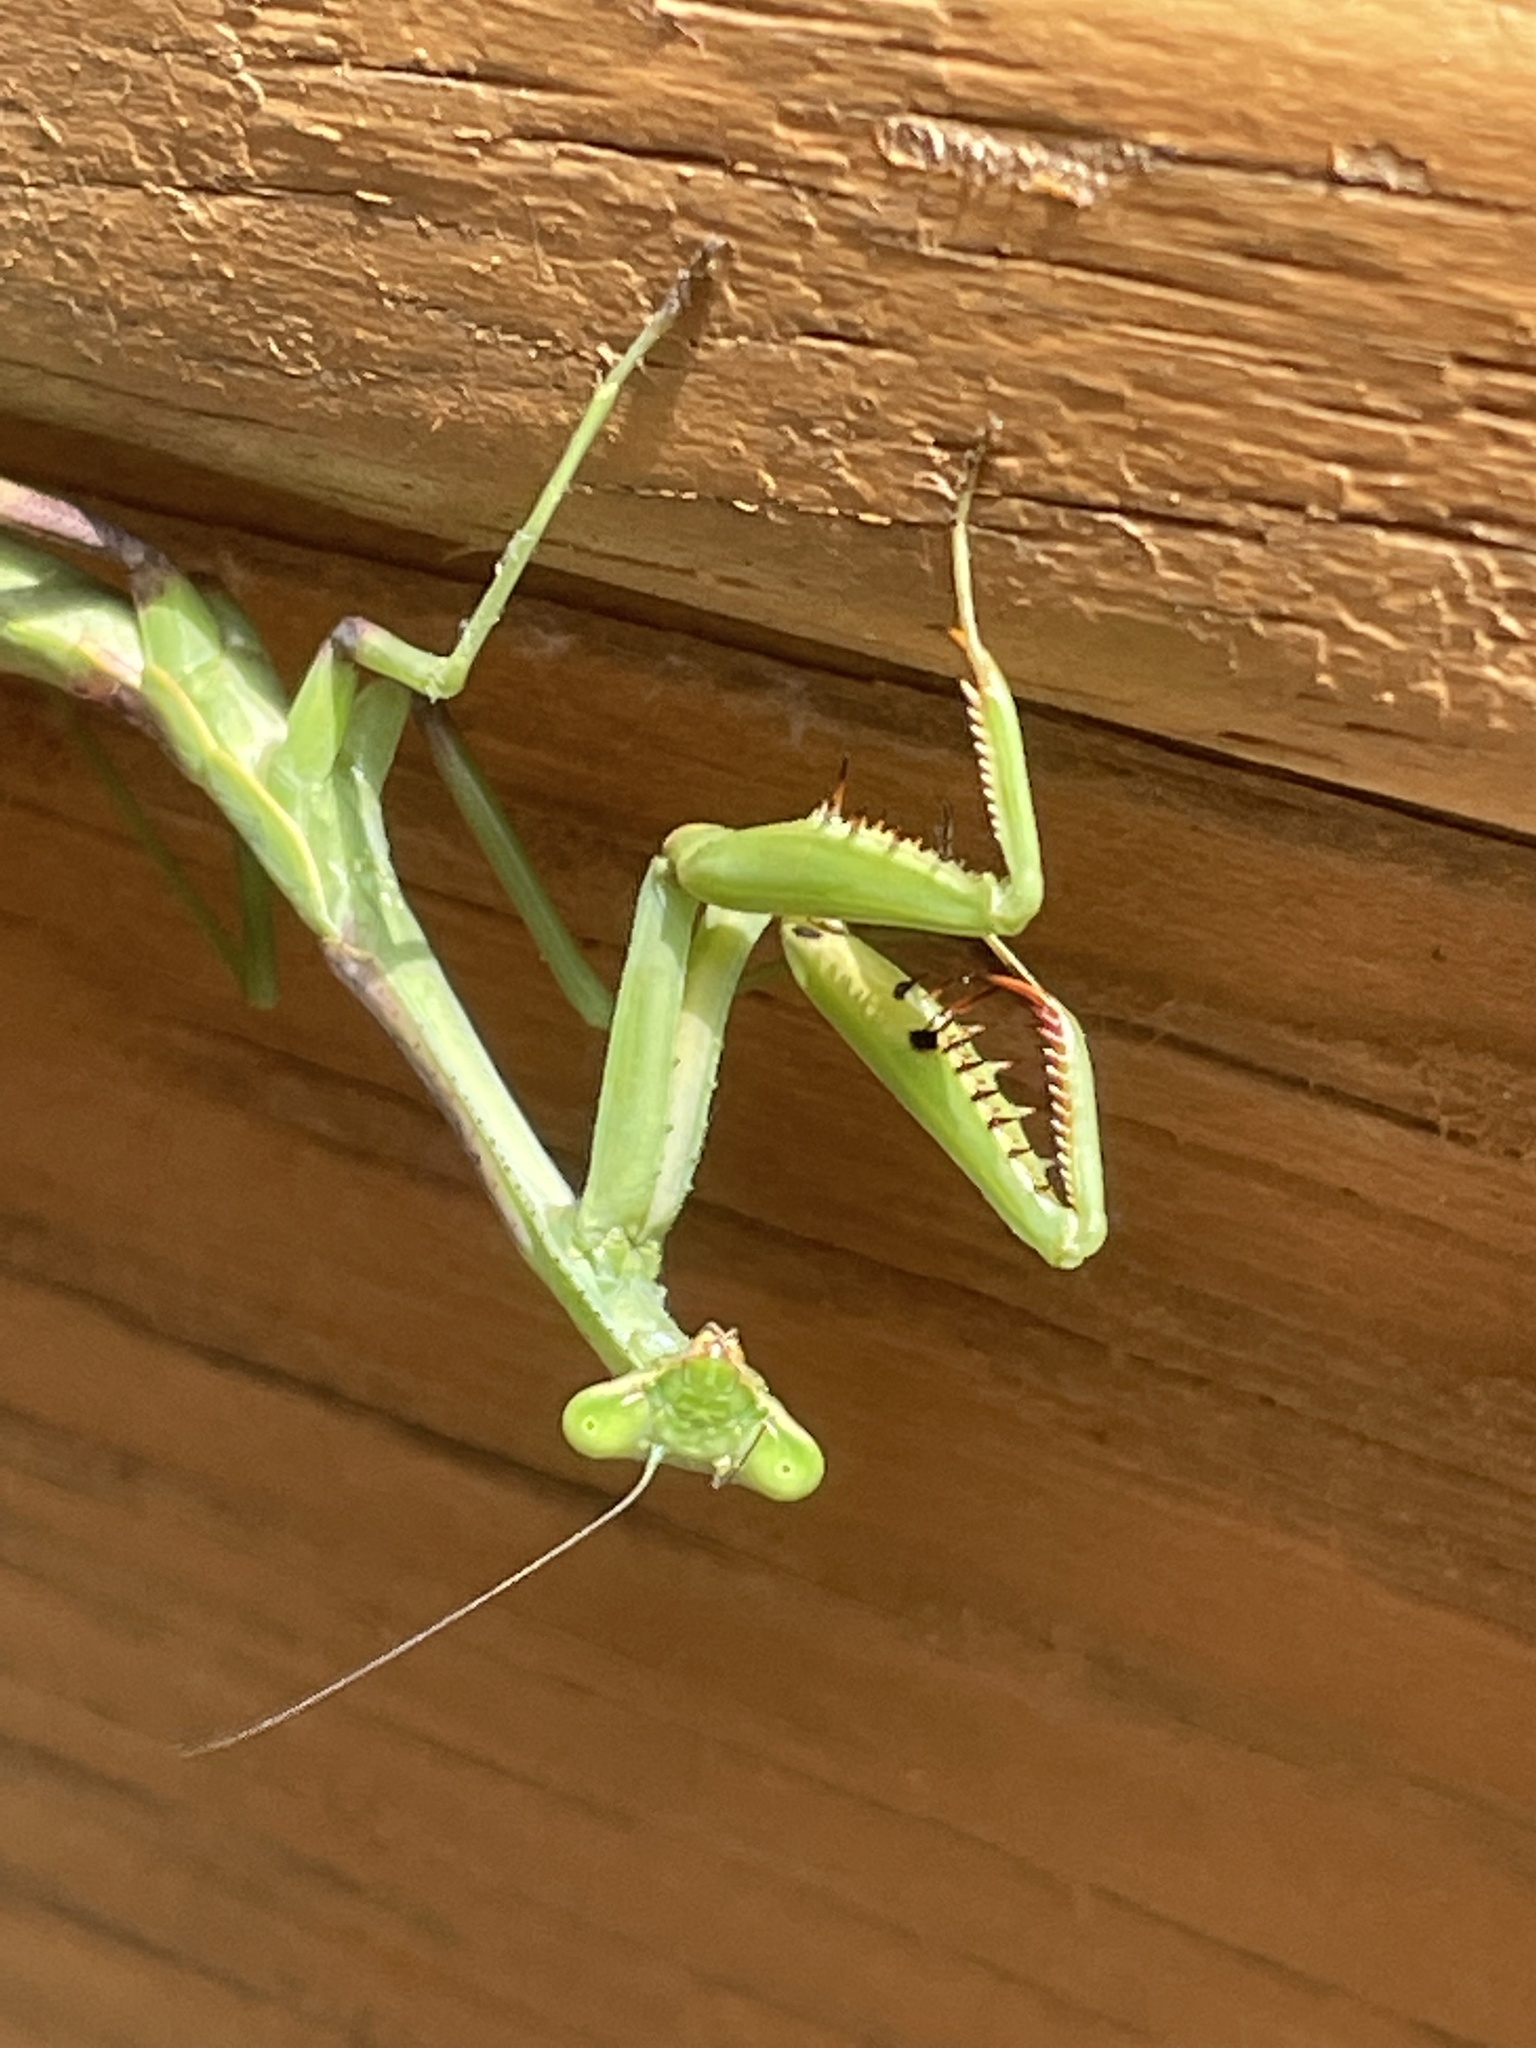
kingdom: Animalia
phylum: Arthropoda
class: Insecta
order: Mantodea
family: Mantidae
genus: Stagmomantis
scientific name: Stagmomantis carolina
